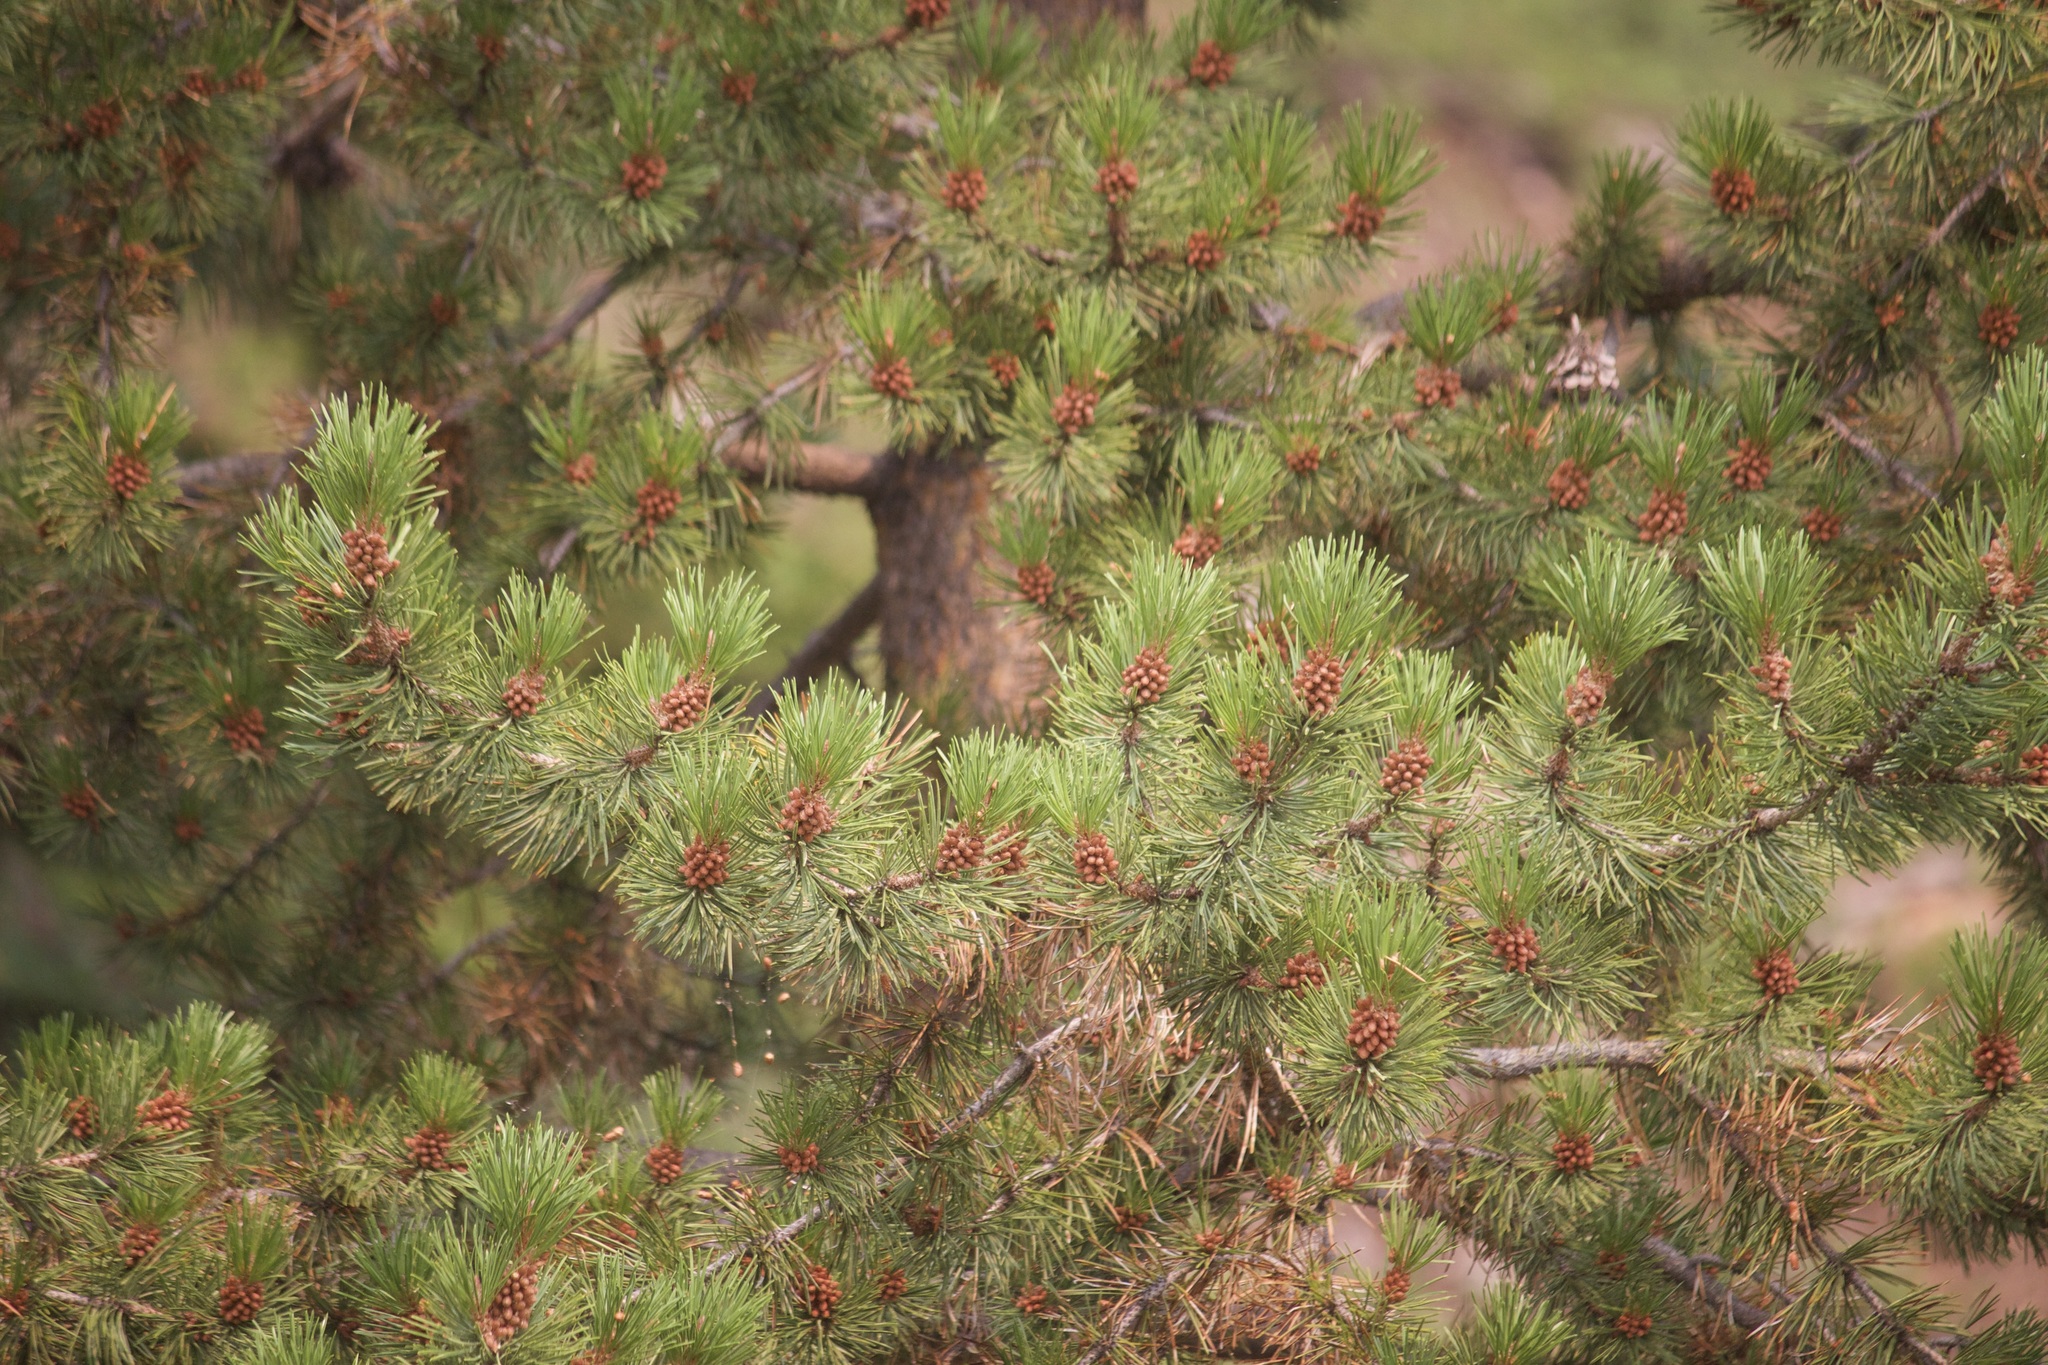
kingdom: Plantae
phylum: Tracheophyta
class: Pinopsida
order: Pinales
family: Pinaceae
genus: Pinus
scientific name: Pinus contorta
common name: Lodgepole pine
